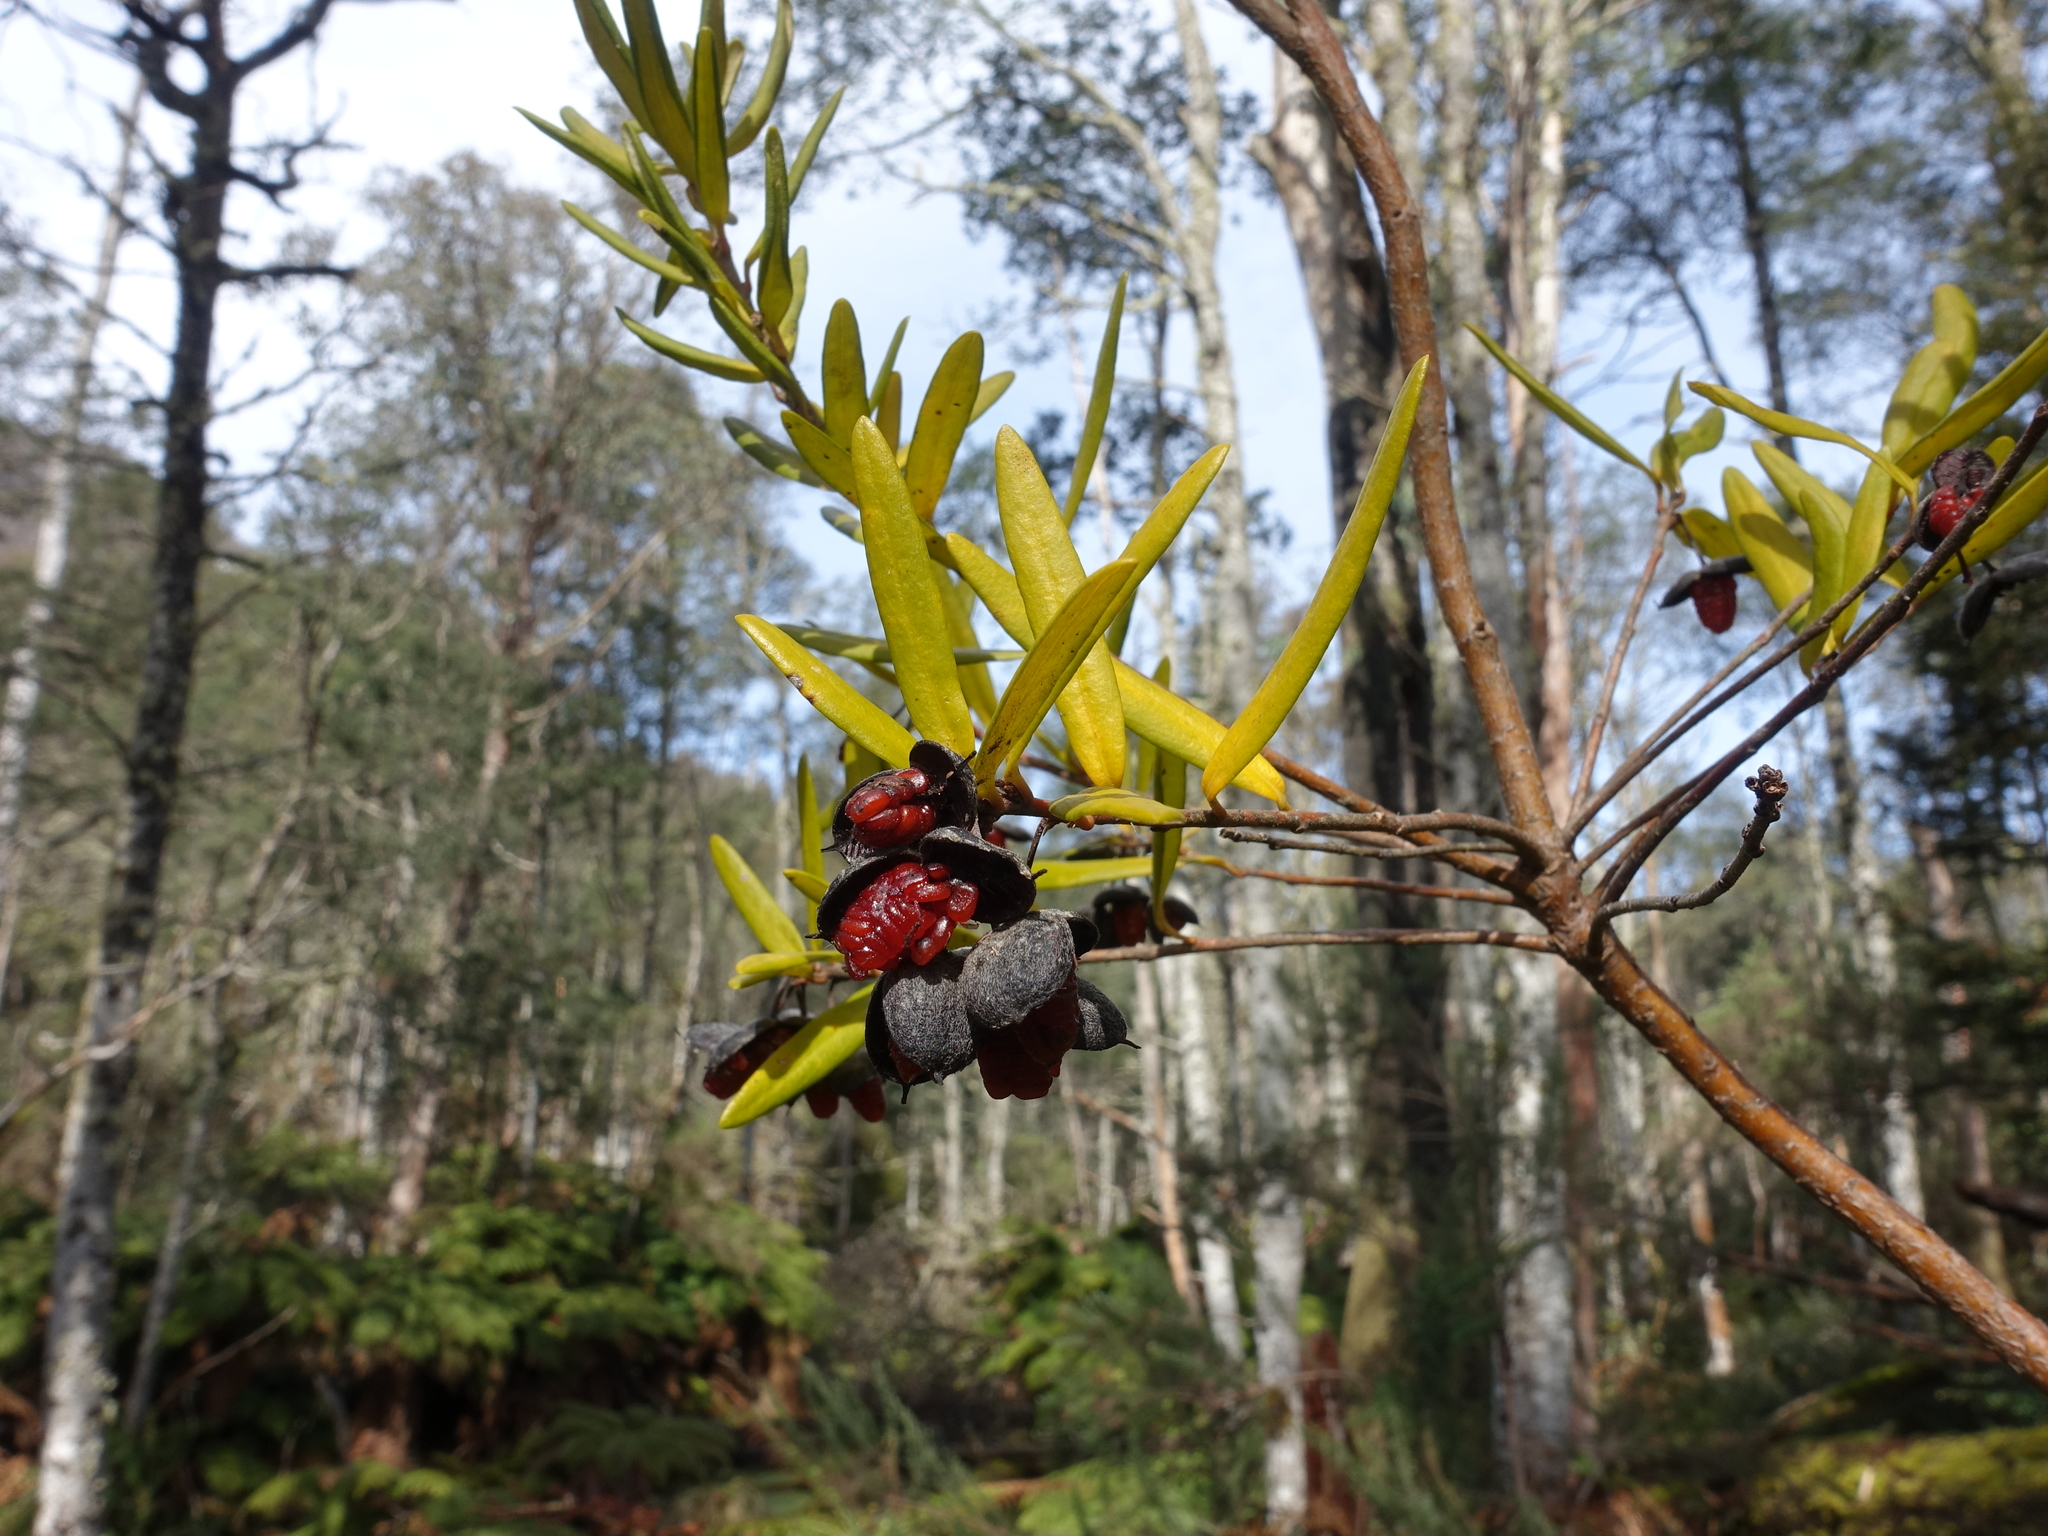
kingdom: Plantae
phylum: Tracheophyta
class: Magnoliopsida
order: Apiales
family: Pittosporaceae
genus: Pittosporum
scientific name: Pittosporum bicolor
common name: Tallowwood
